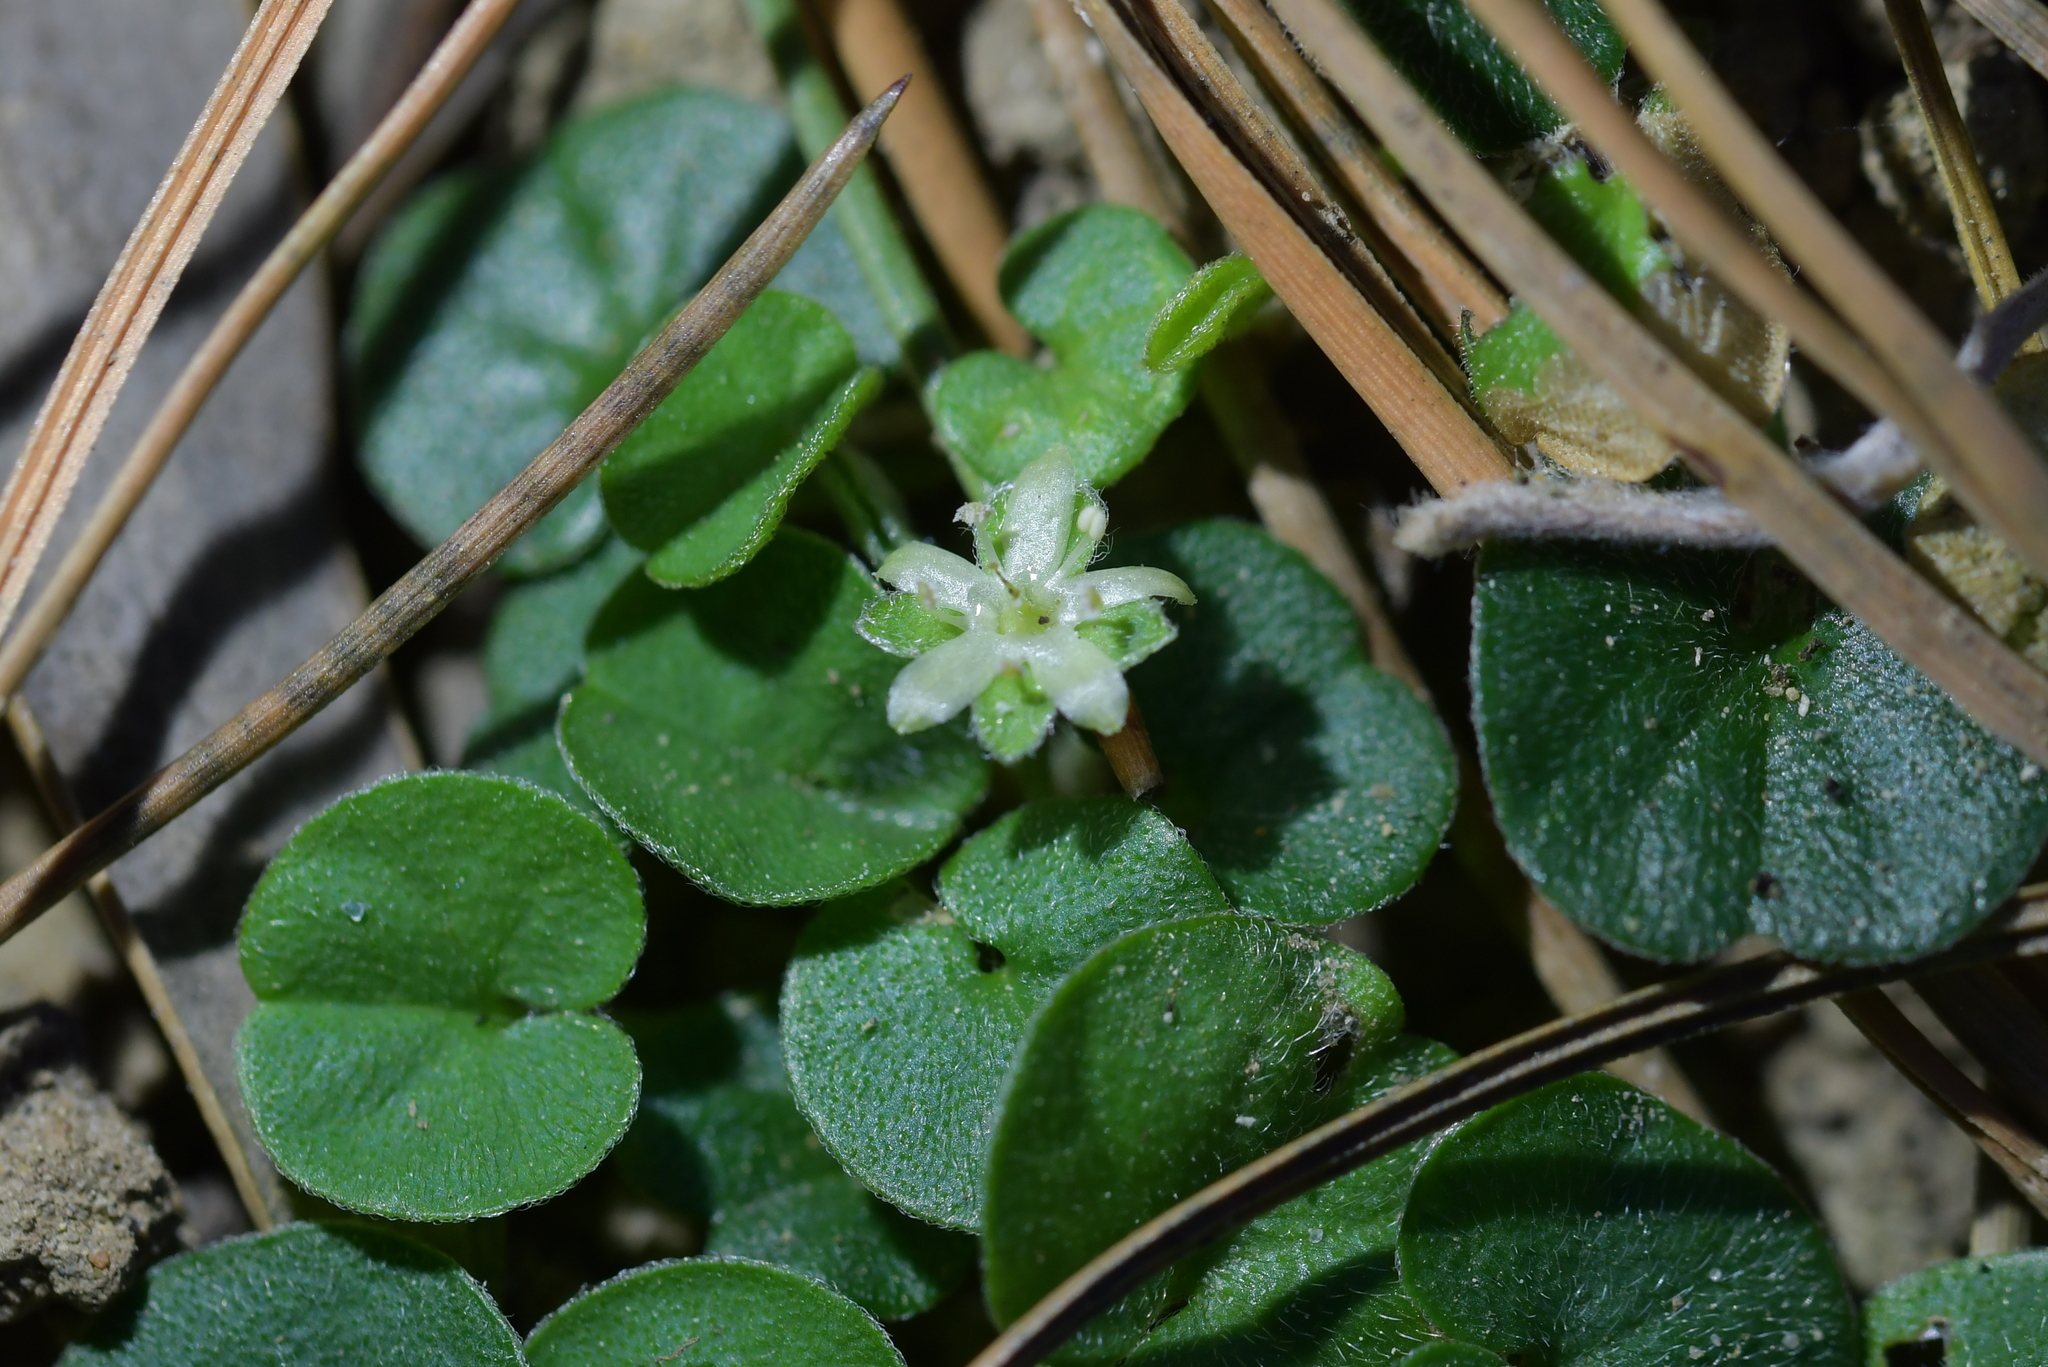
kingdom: Plantae
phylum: Tracheophyta
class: Magnoliopsida
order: Solanales
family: Convolvulaceae
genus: Dichondra
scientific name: Dichondra repens
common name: Kidneyweed
